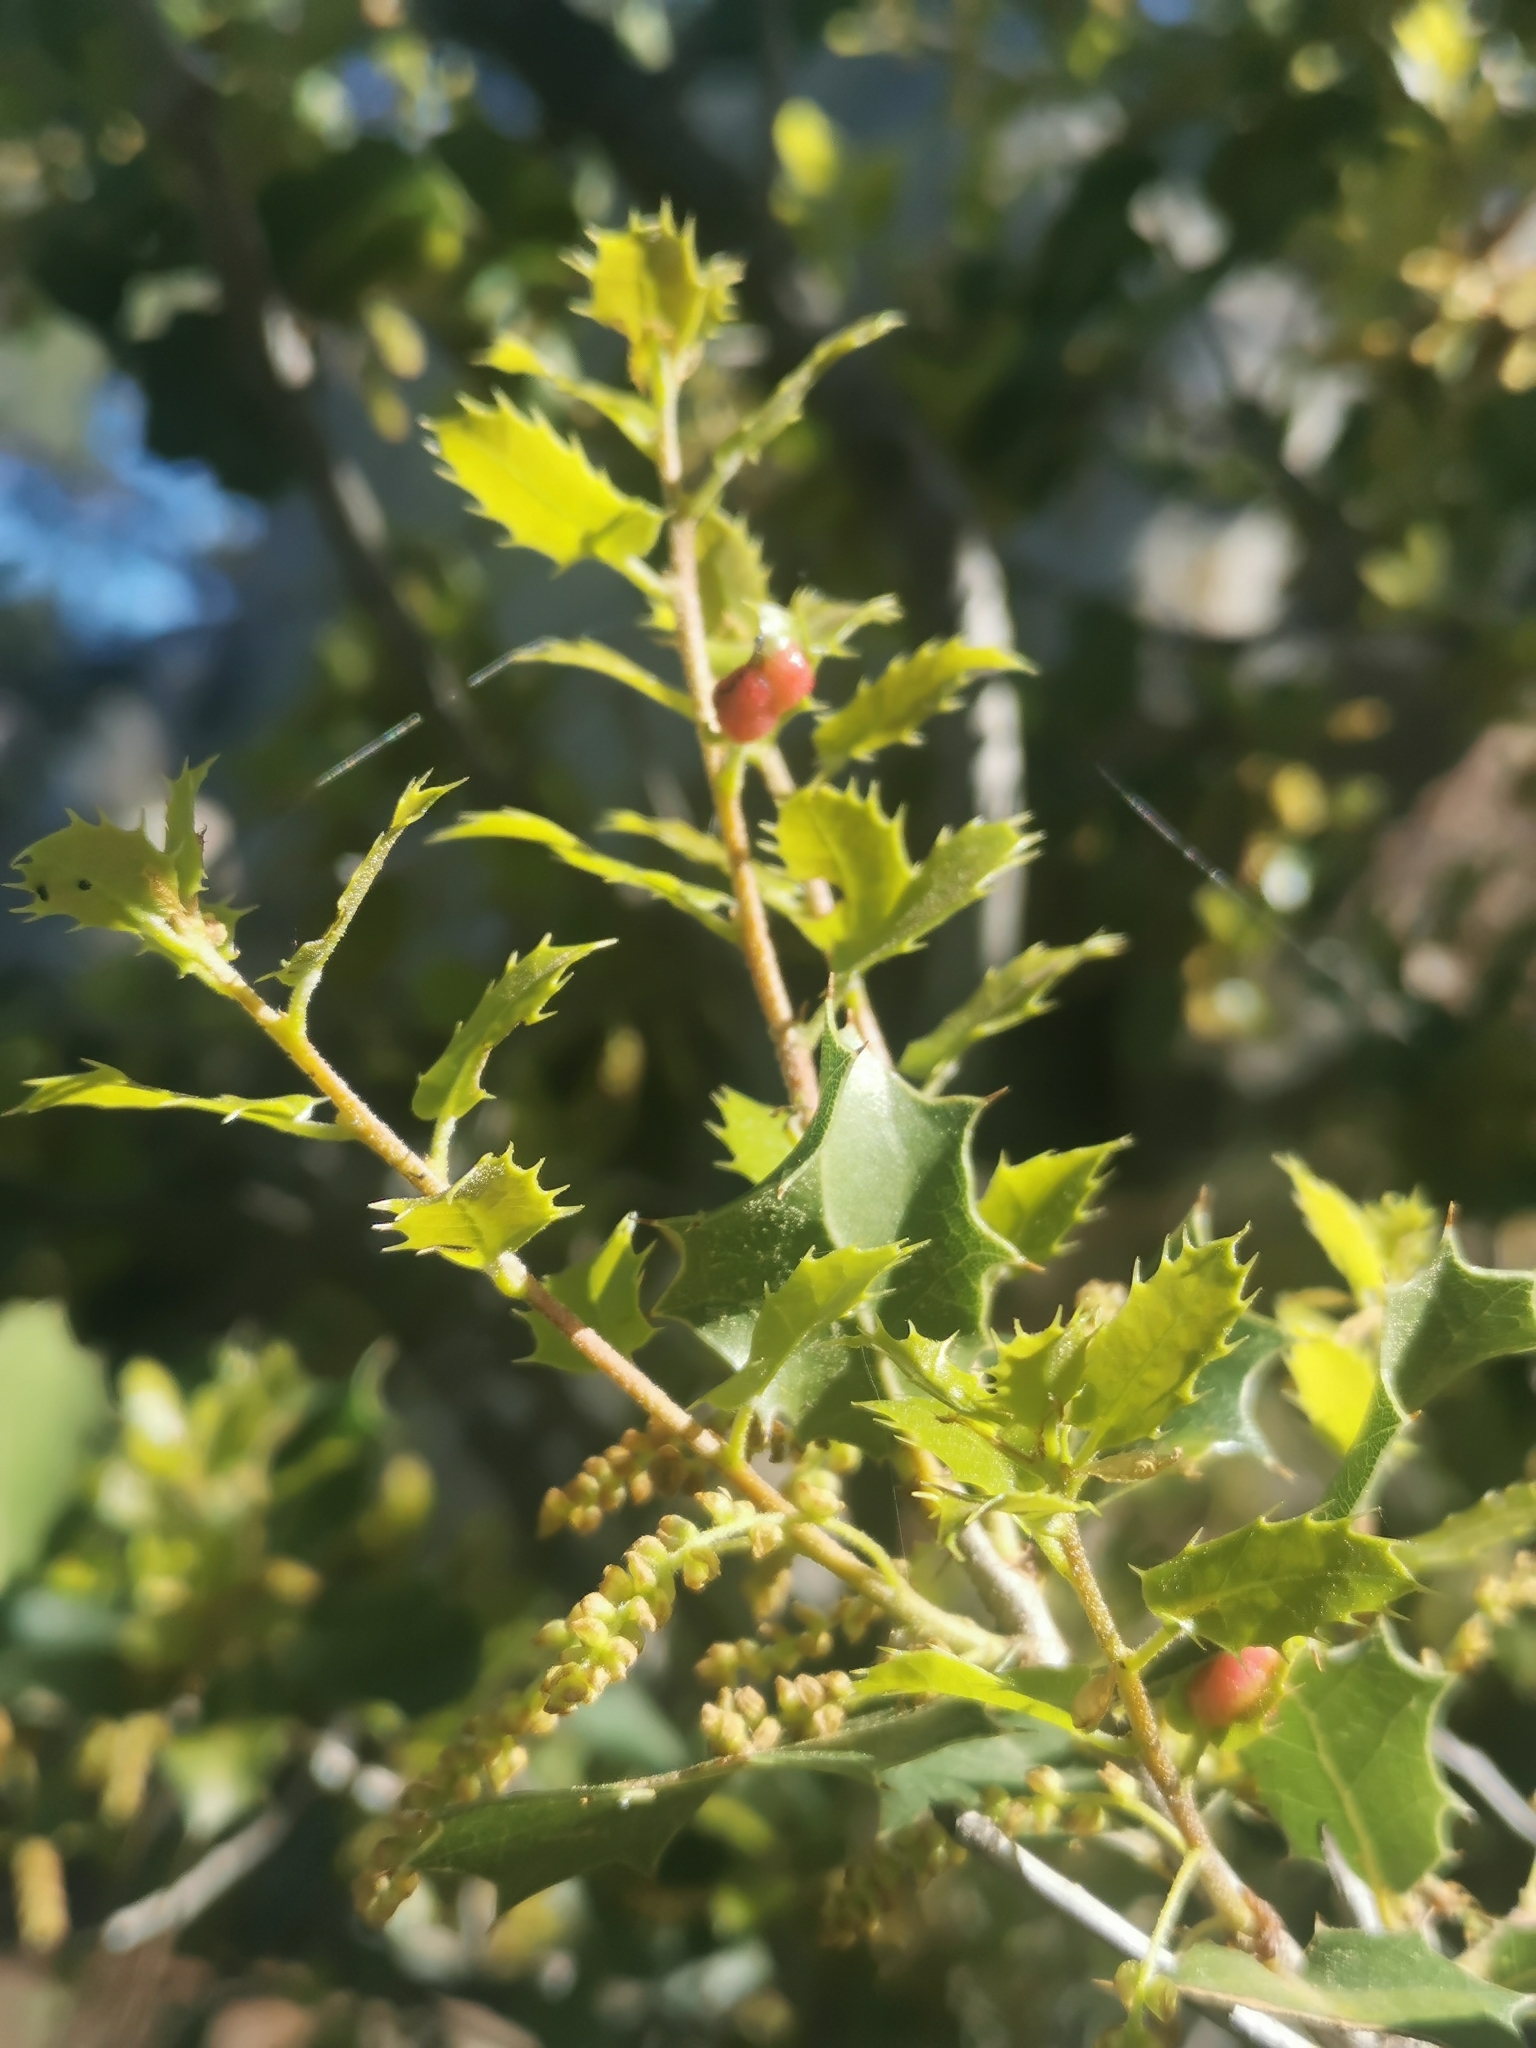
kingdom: Plantae
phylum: Tracheophyta
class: Magnoliopsida
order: Fagales
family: Fagaceae
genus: Quercus
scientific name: Quercus coccifera
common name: Kermes oak
